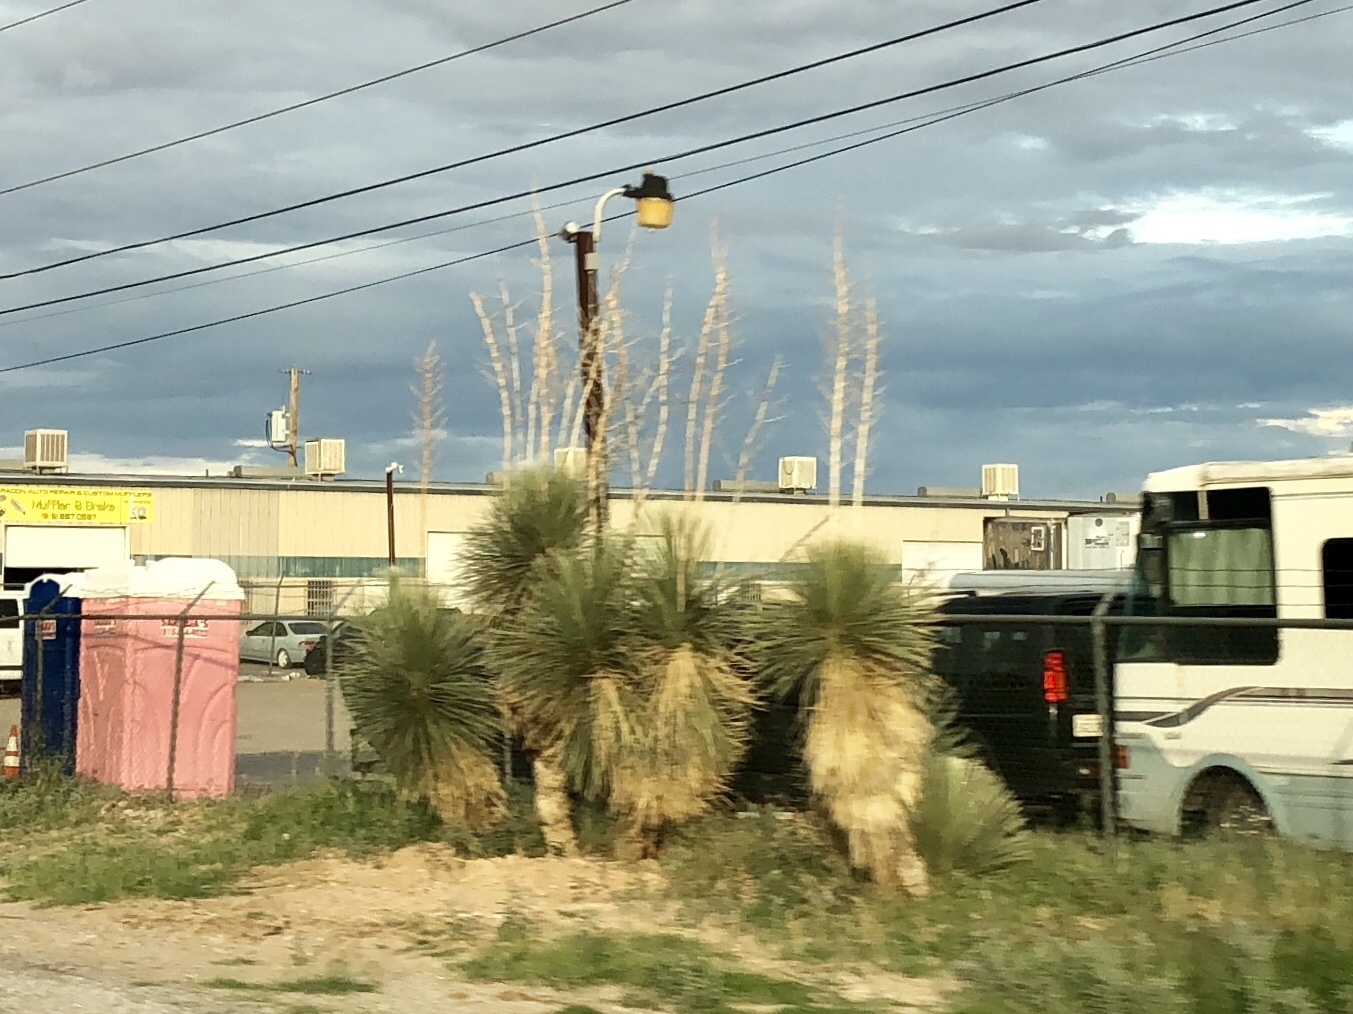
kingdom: Plantae
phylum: Tracheophyta
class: Liliopsida
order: Asparagales
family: Asparagaceae
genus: Yucca
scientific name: Yucca elata
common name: Palmella
